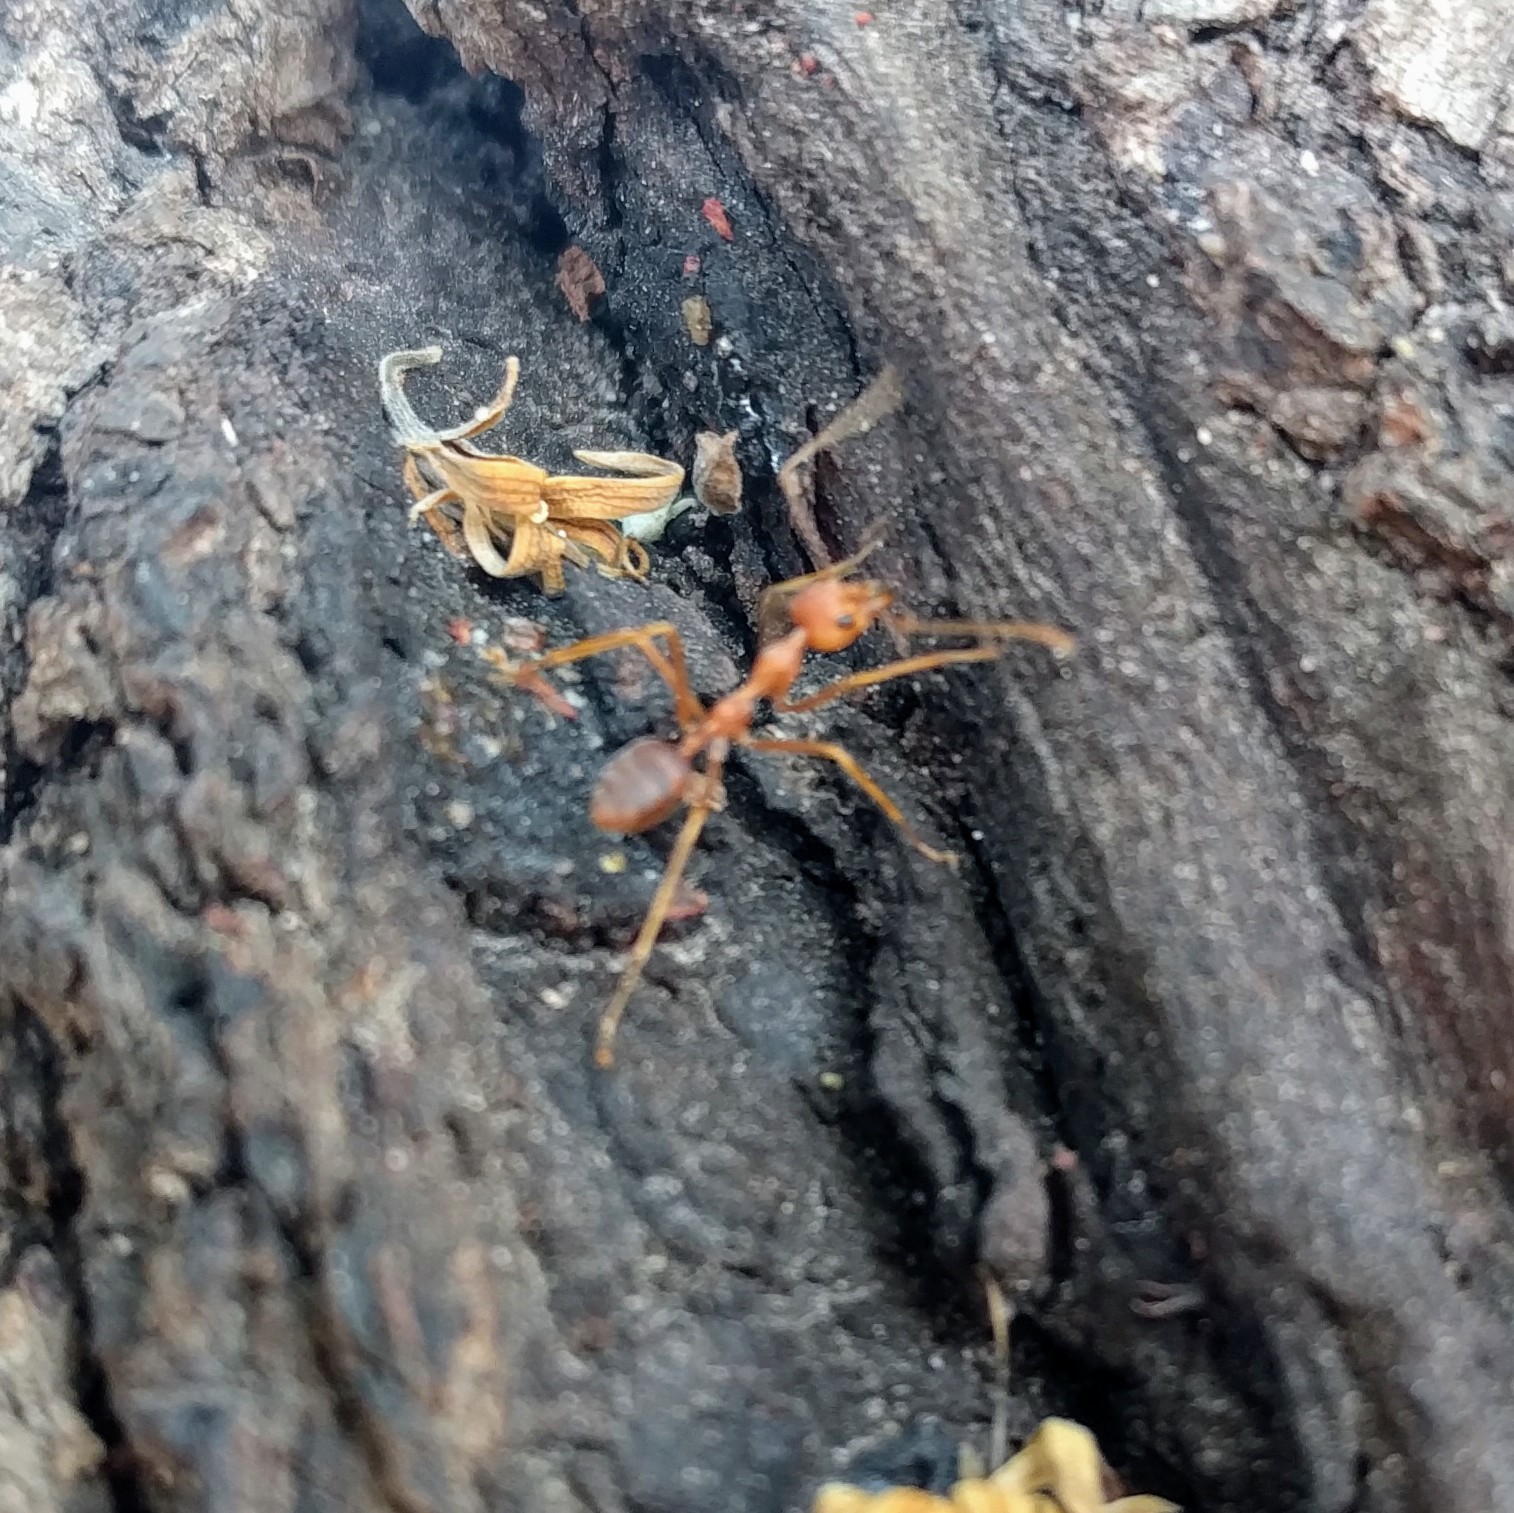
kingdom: Animalia
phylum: Arthropoda
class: Insecta
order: Hymenoptera
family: Formicidae
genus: Oecophylla
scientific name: Oecophylla smaragdina
